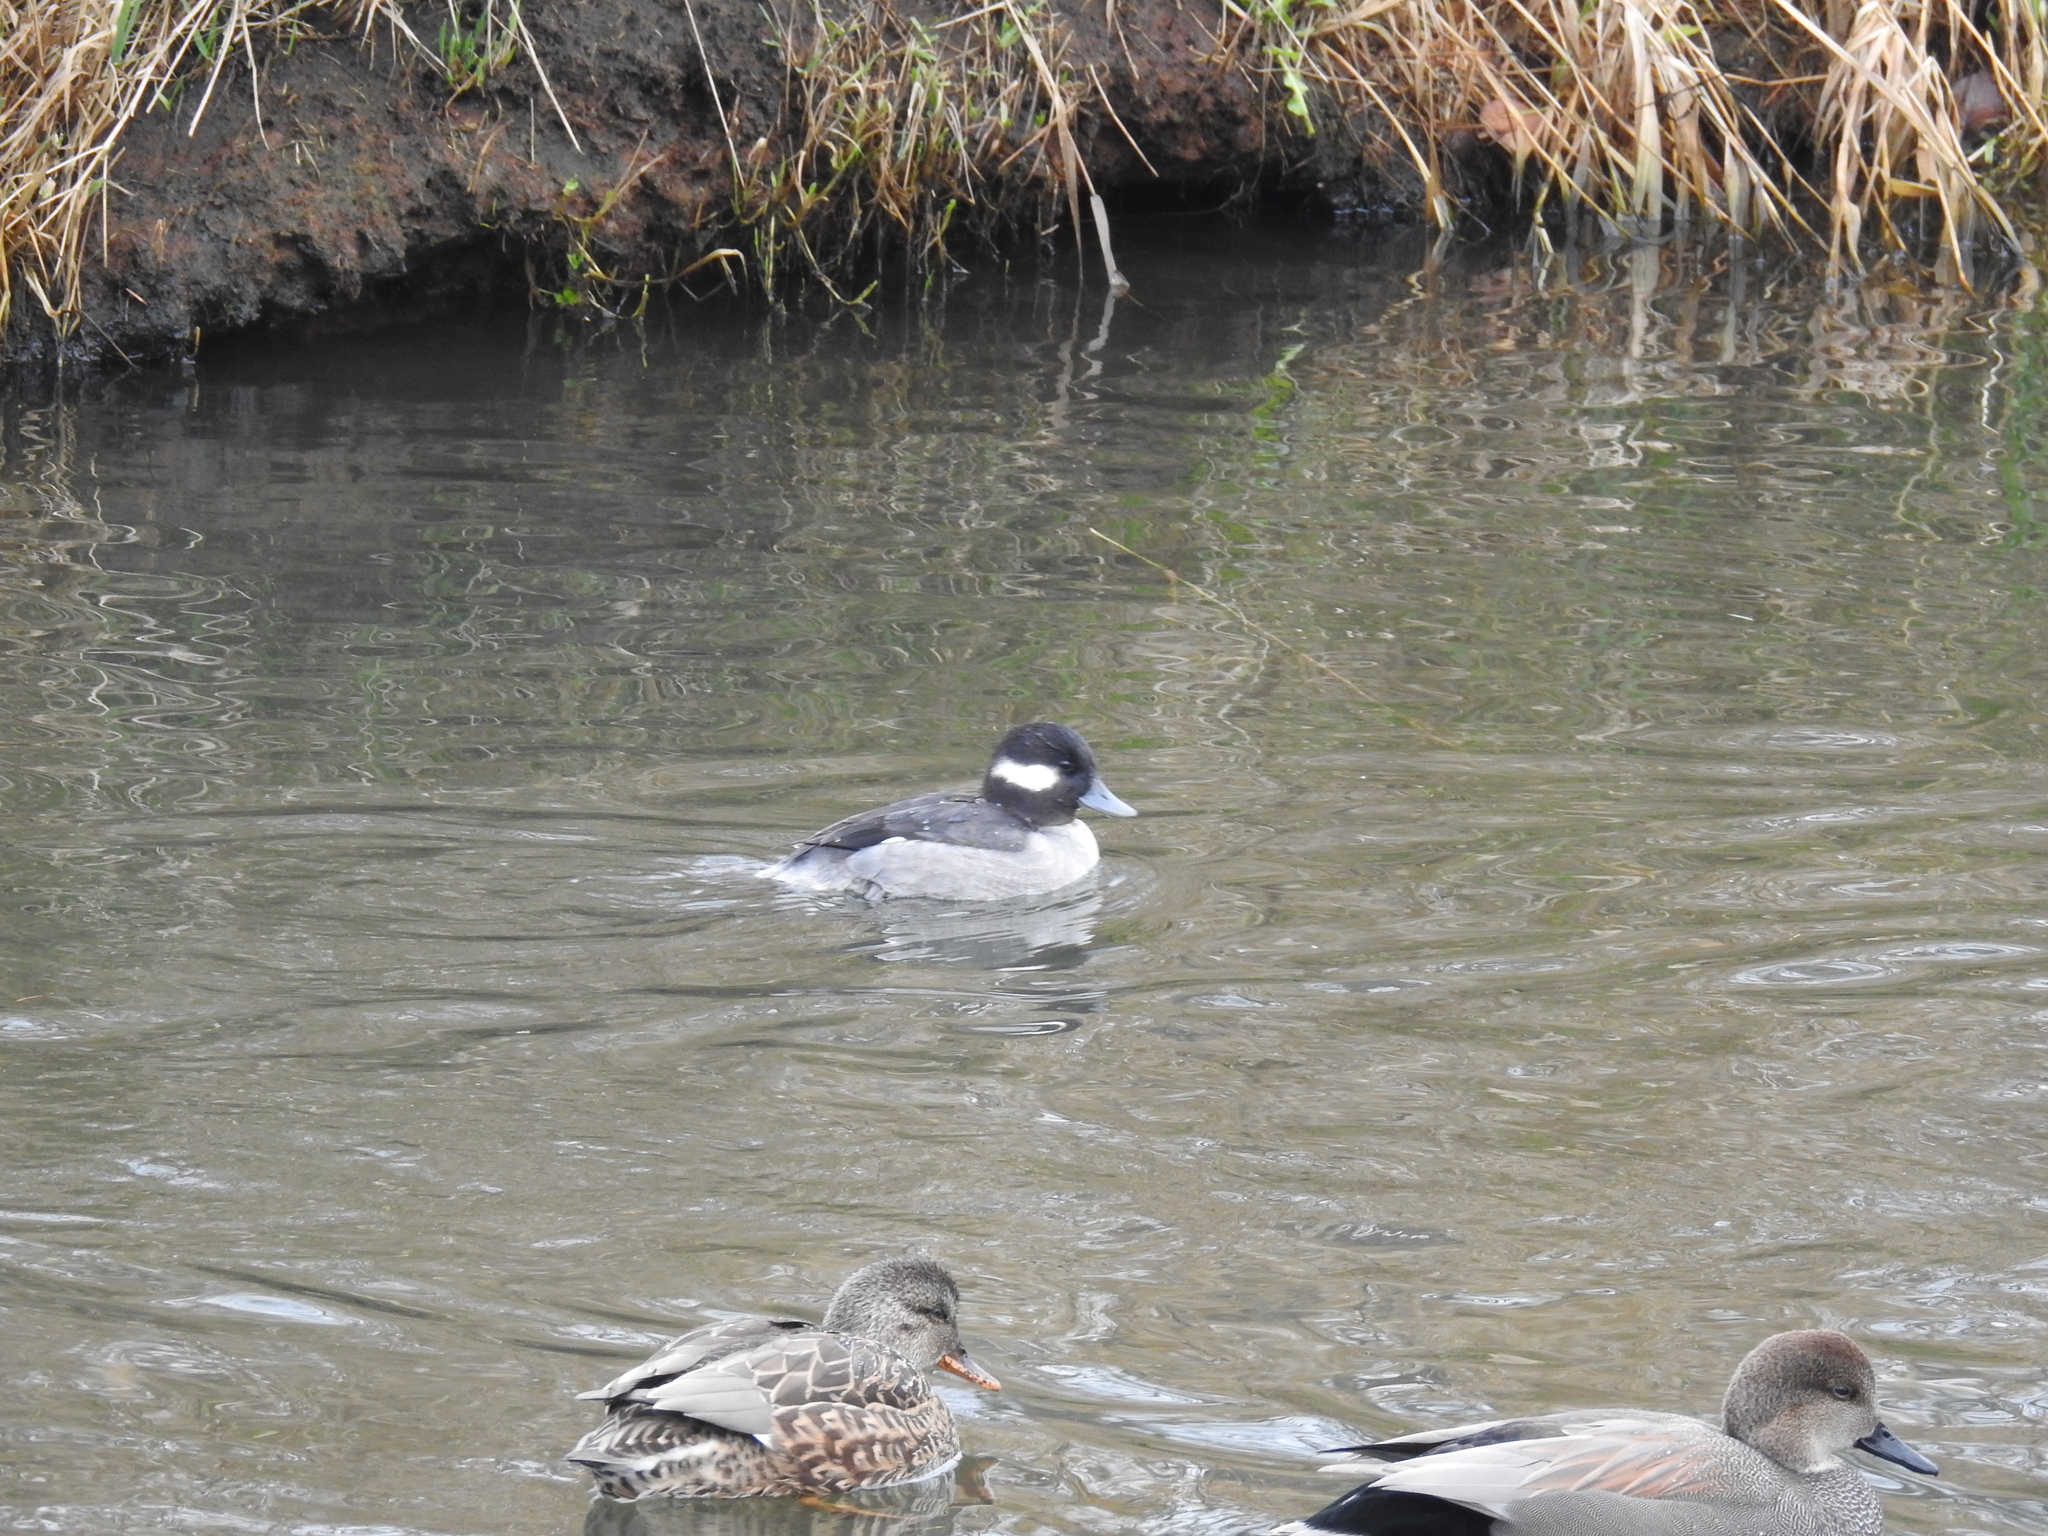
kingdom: Animalia
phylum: Chordata
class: Aves
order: Anseriformes
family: Anatidae
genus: Bucephala
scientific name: Bucephala albeola
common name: Bufflehead
